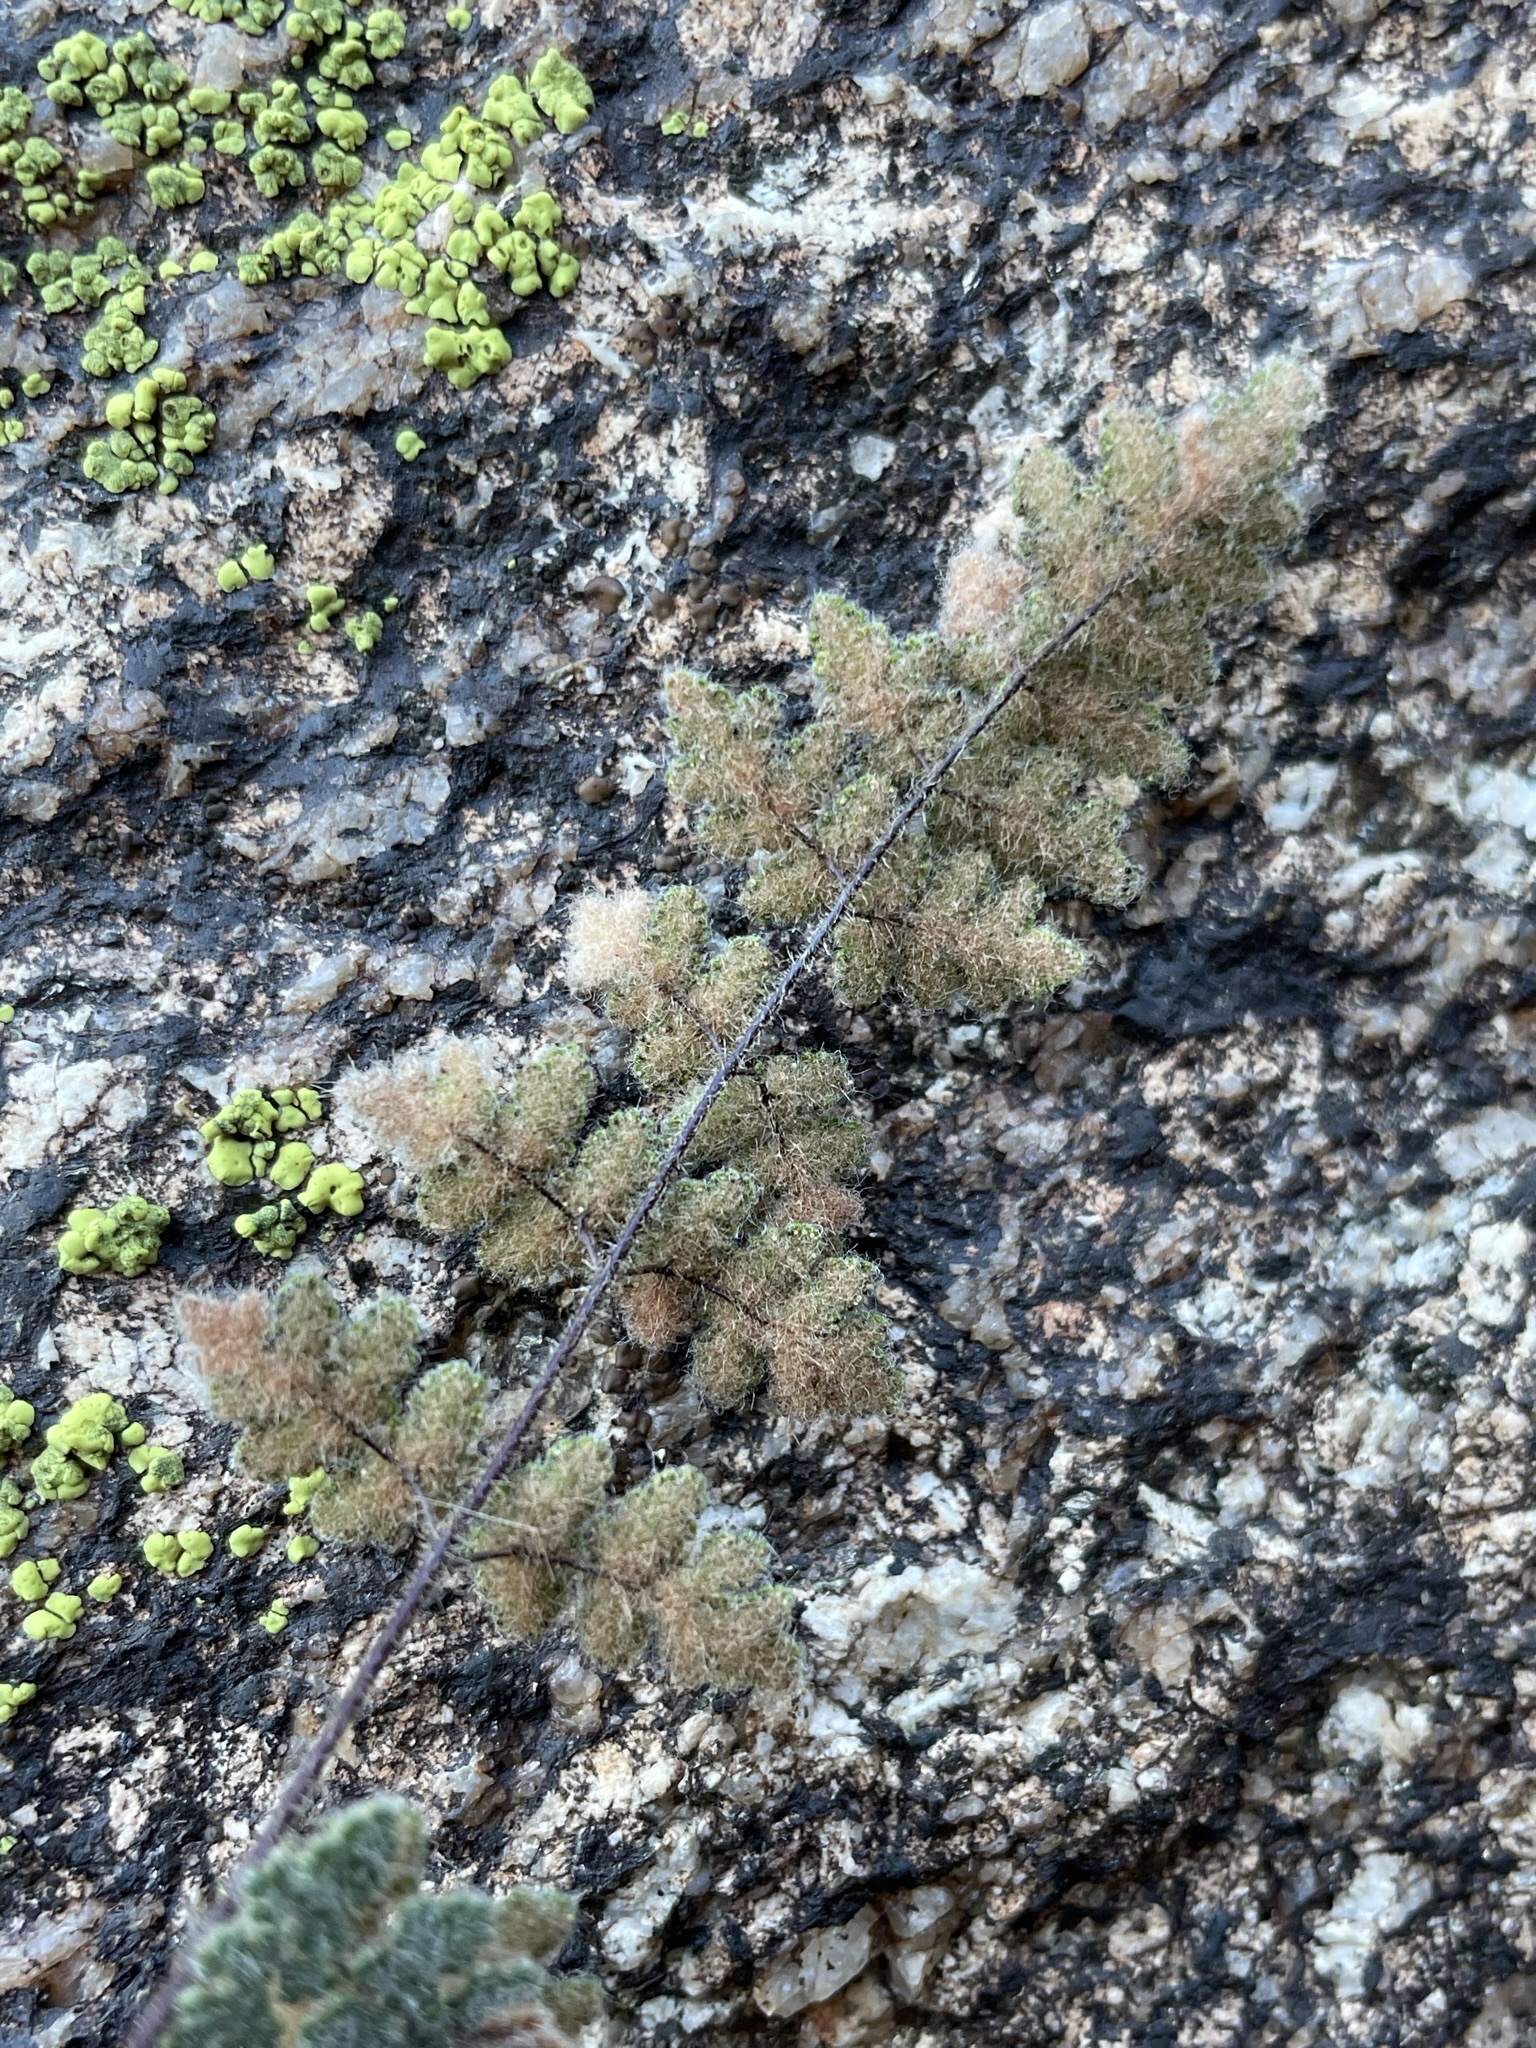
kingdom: Plantae
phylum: Tracheophyta
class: Polypodiopsida
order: Polypodiales
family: Pteridaceae
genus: Myriopteris
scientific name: Myriopteris parryi
